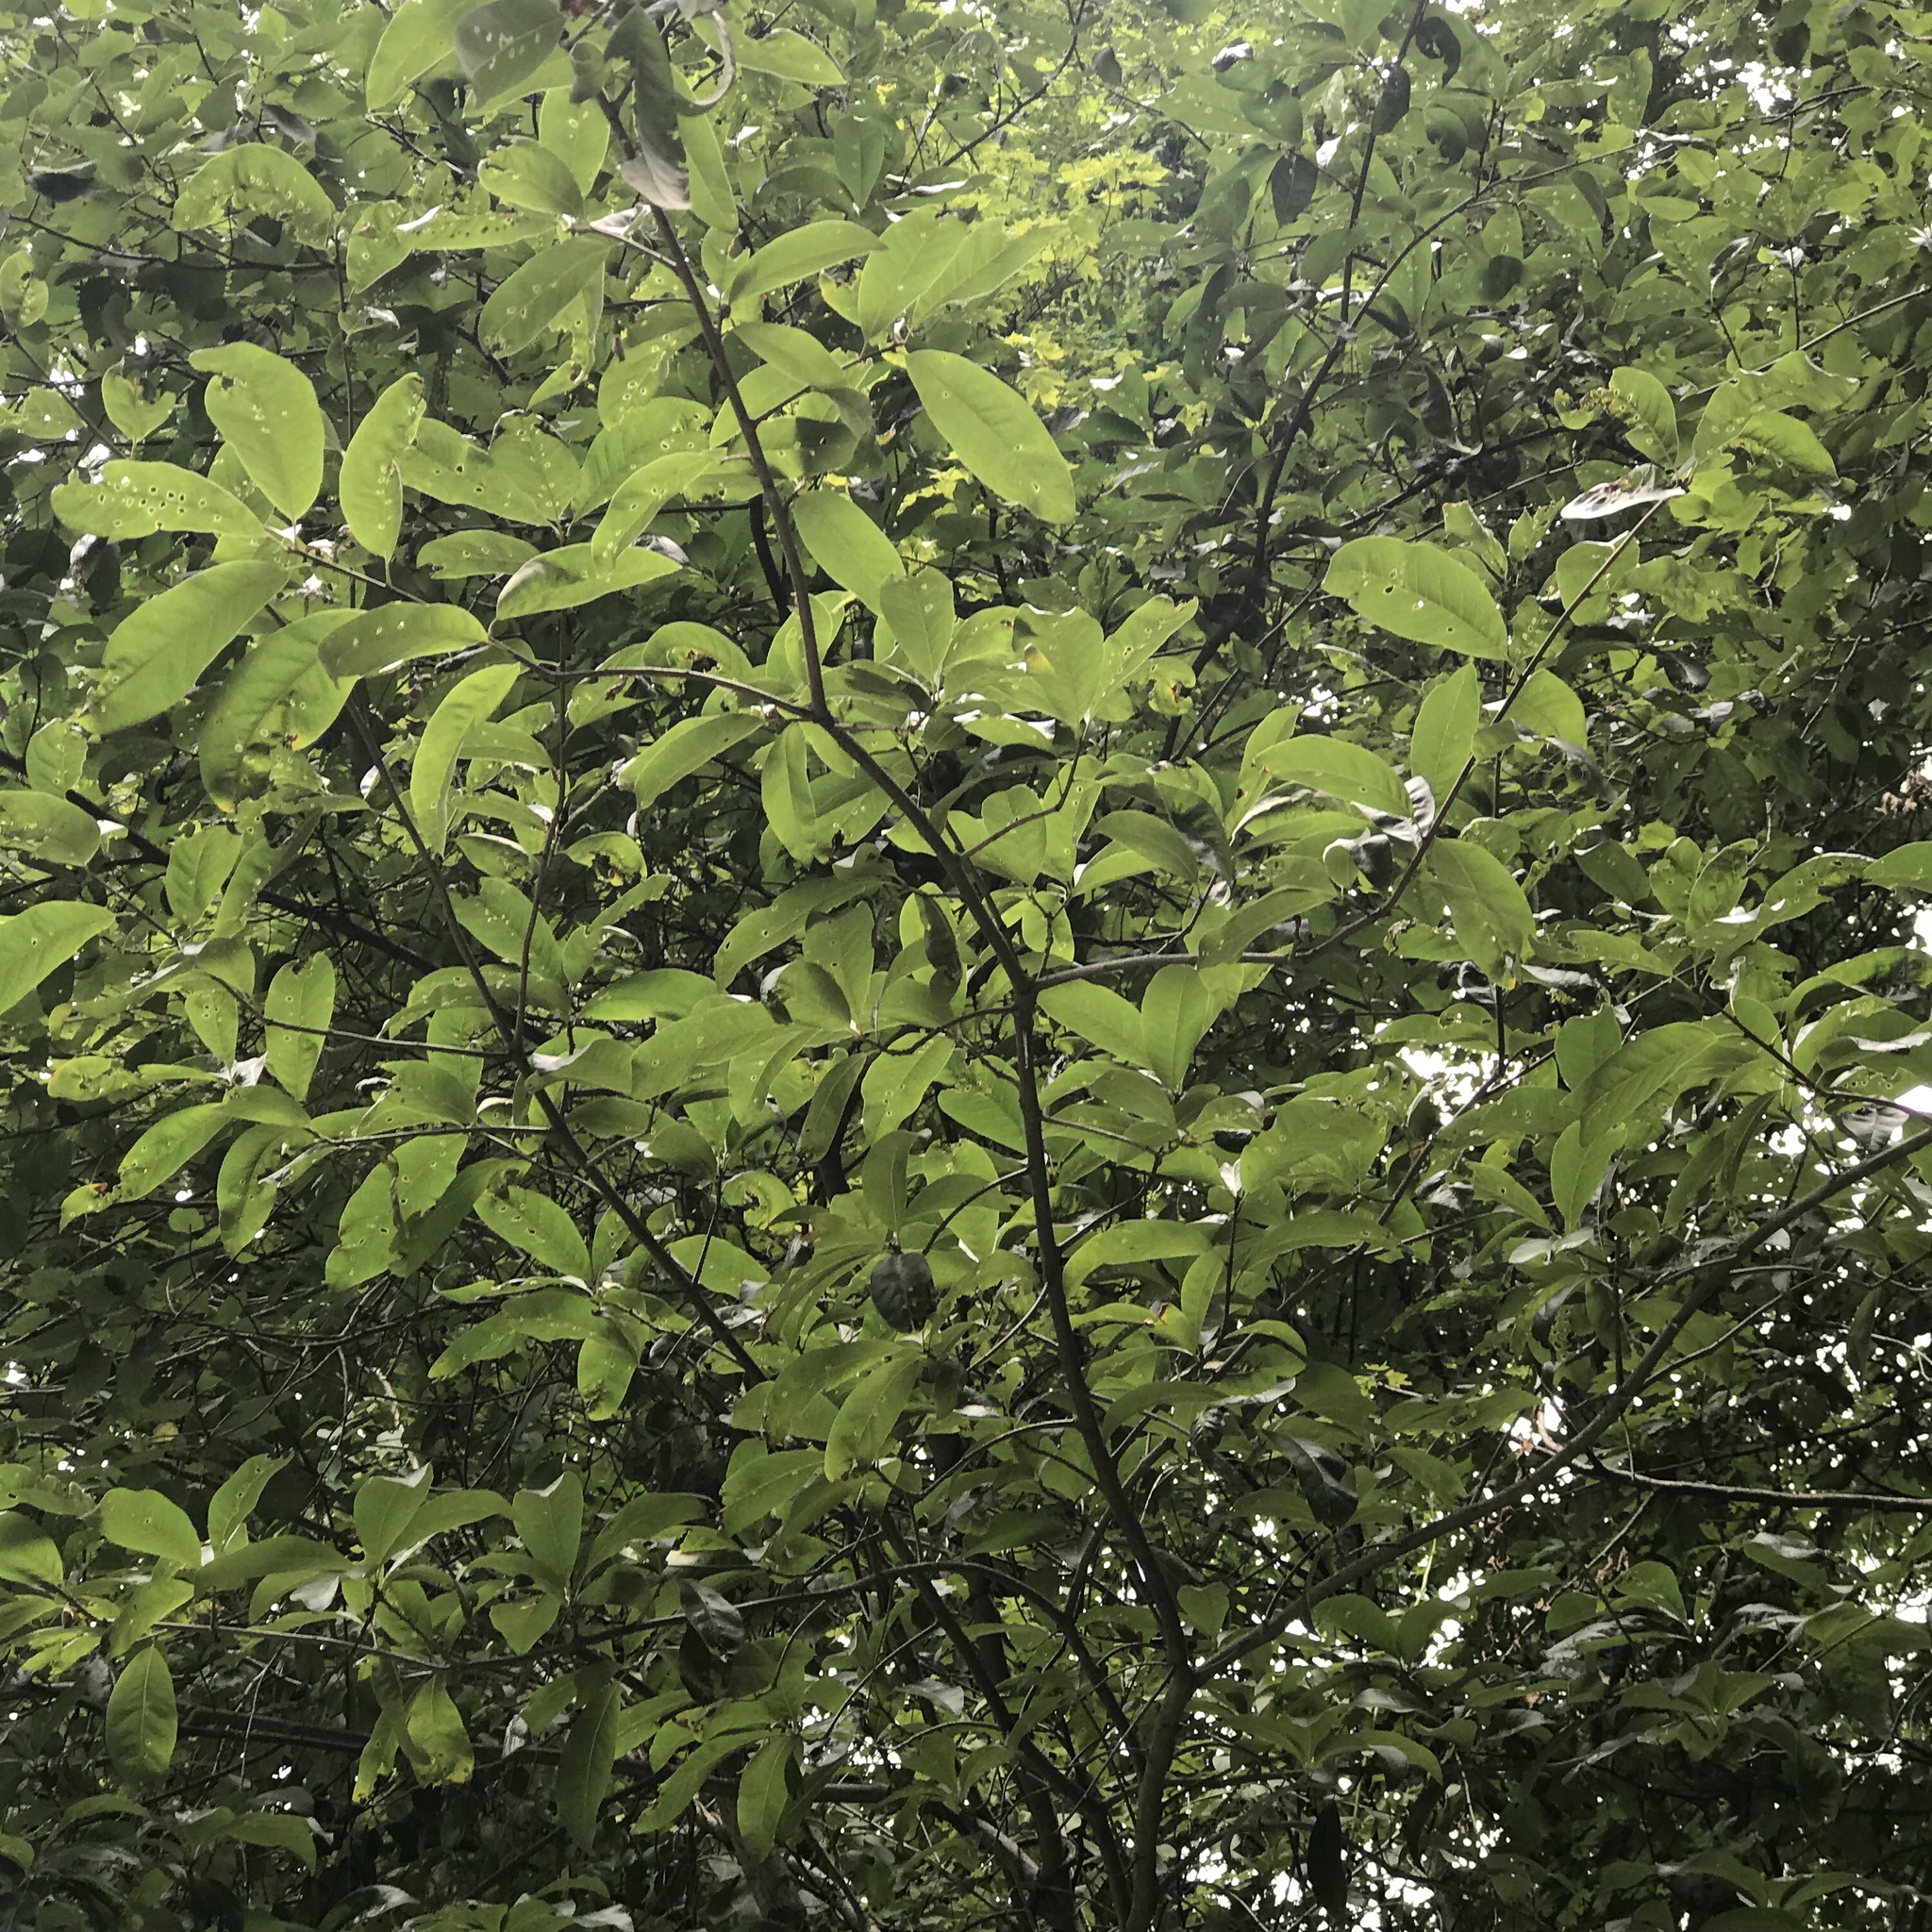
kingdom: Plantae
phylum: Tracheophyta
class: Magnoliopsida
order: Fagales
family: Fagaceae
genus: Quercus
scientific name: Quercus imbricaria
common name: Shingle oak
